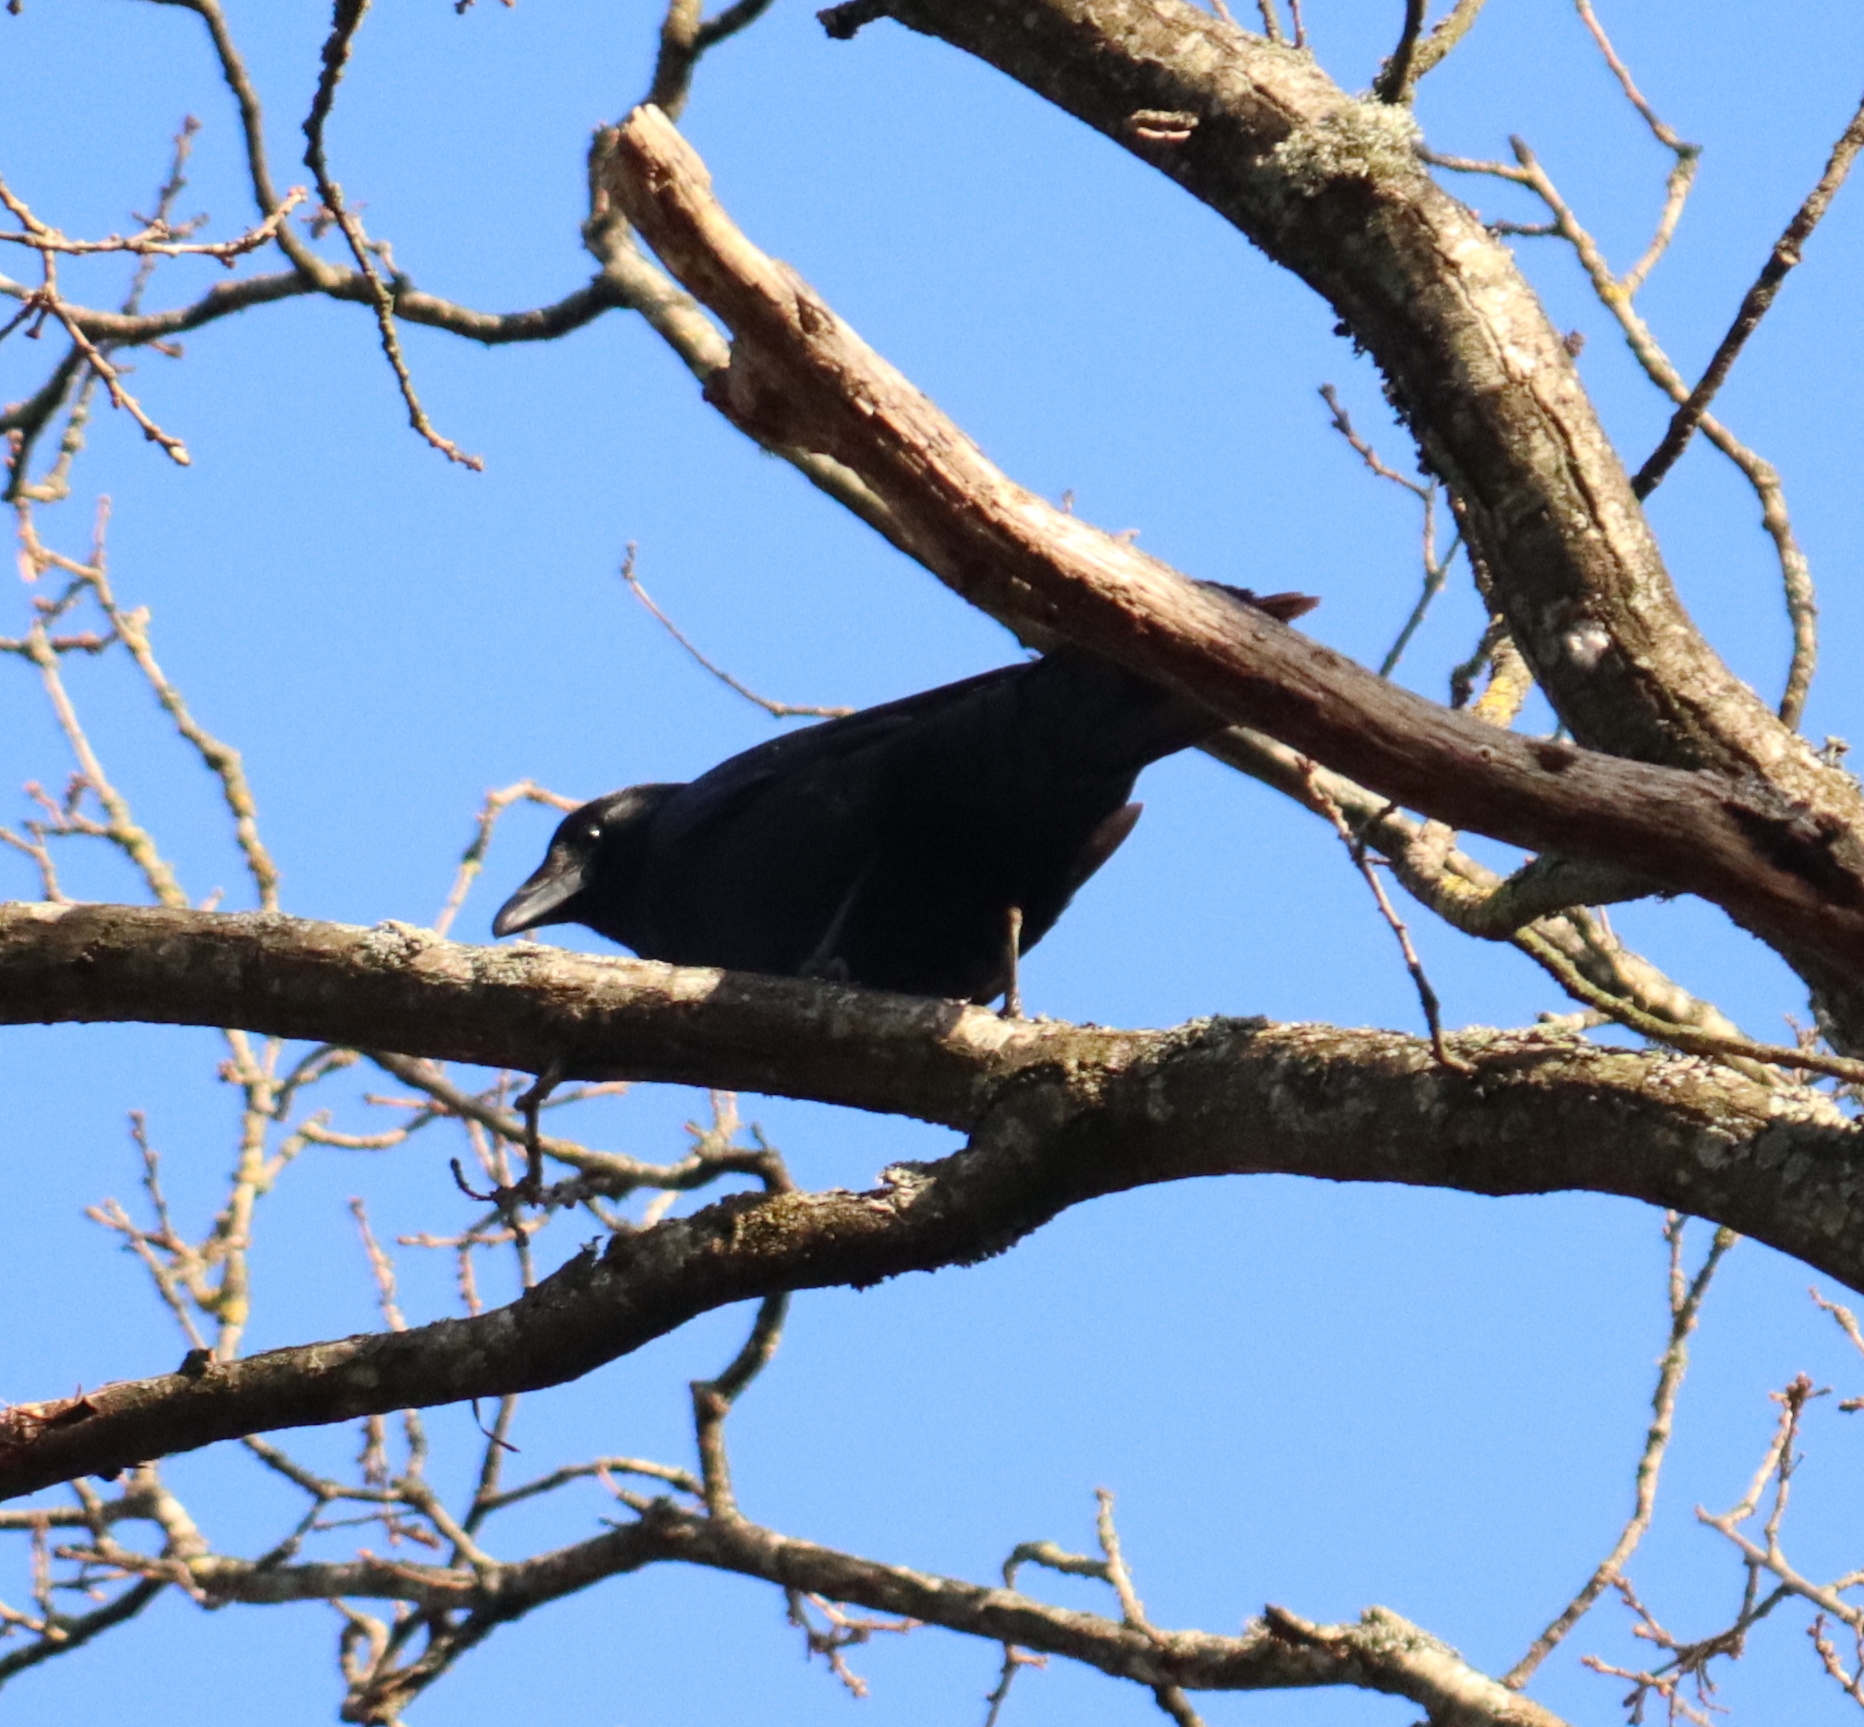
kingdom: Animalia
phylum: Chordata
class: Aves
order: Passeriformes
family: Corvidae
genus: Corvus
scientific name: Corvus corone
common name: Carrion crow
